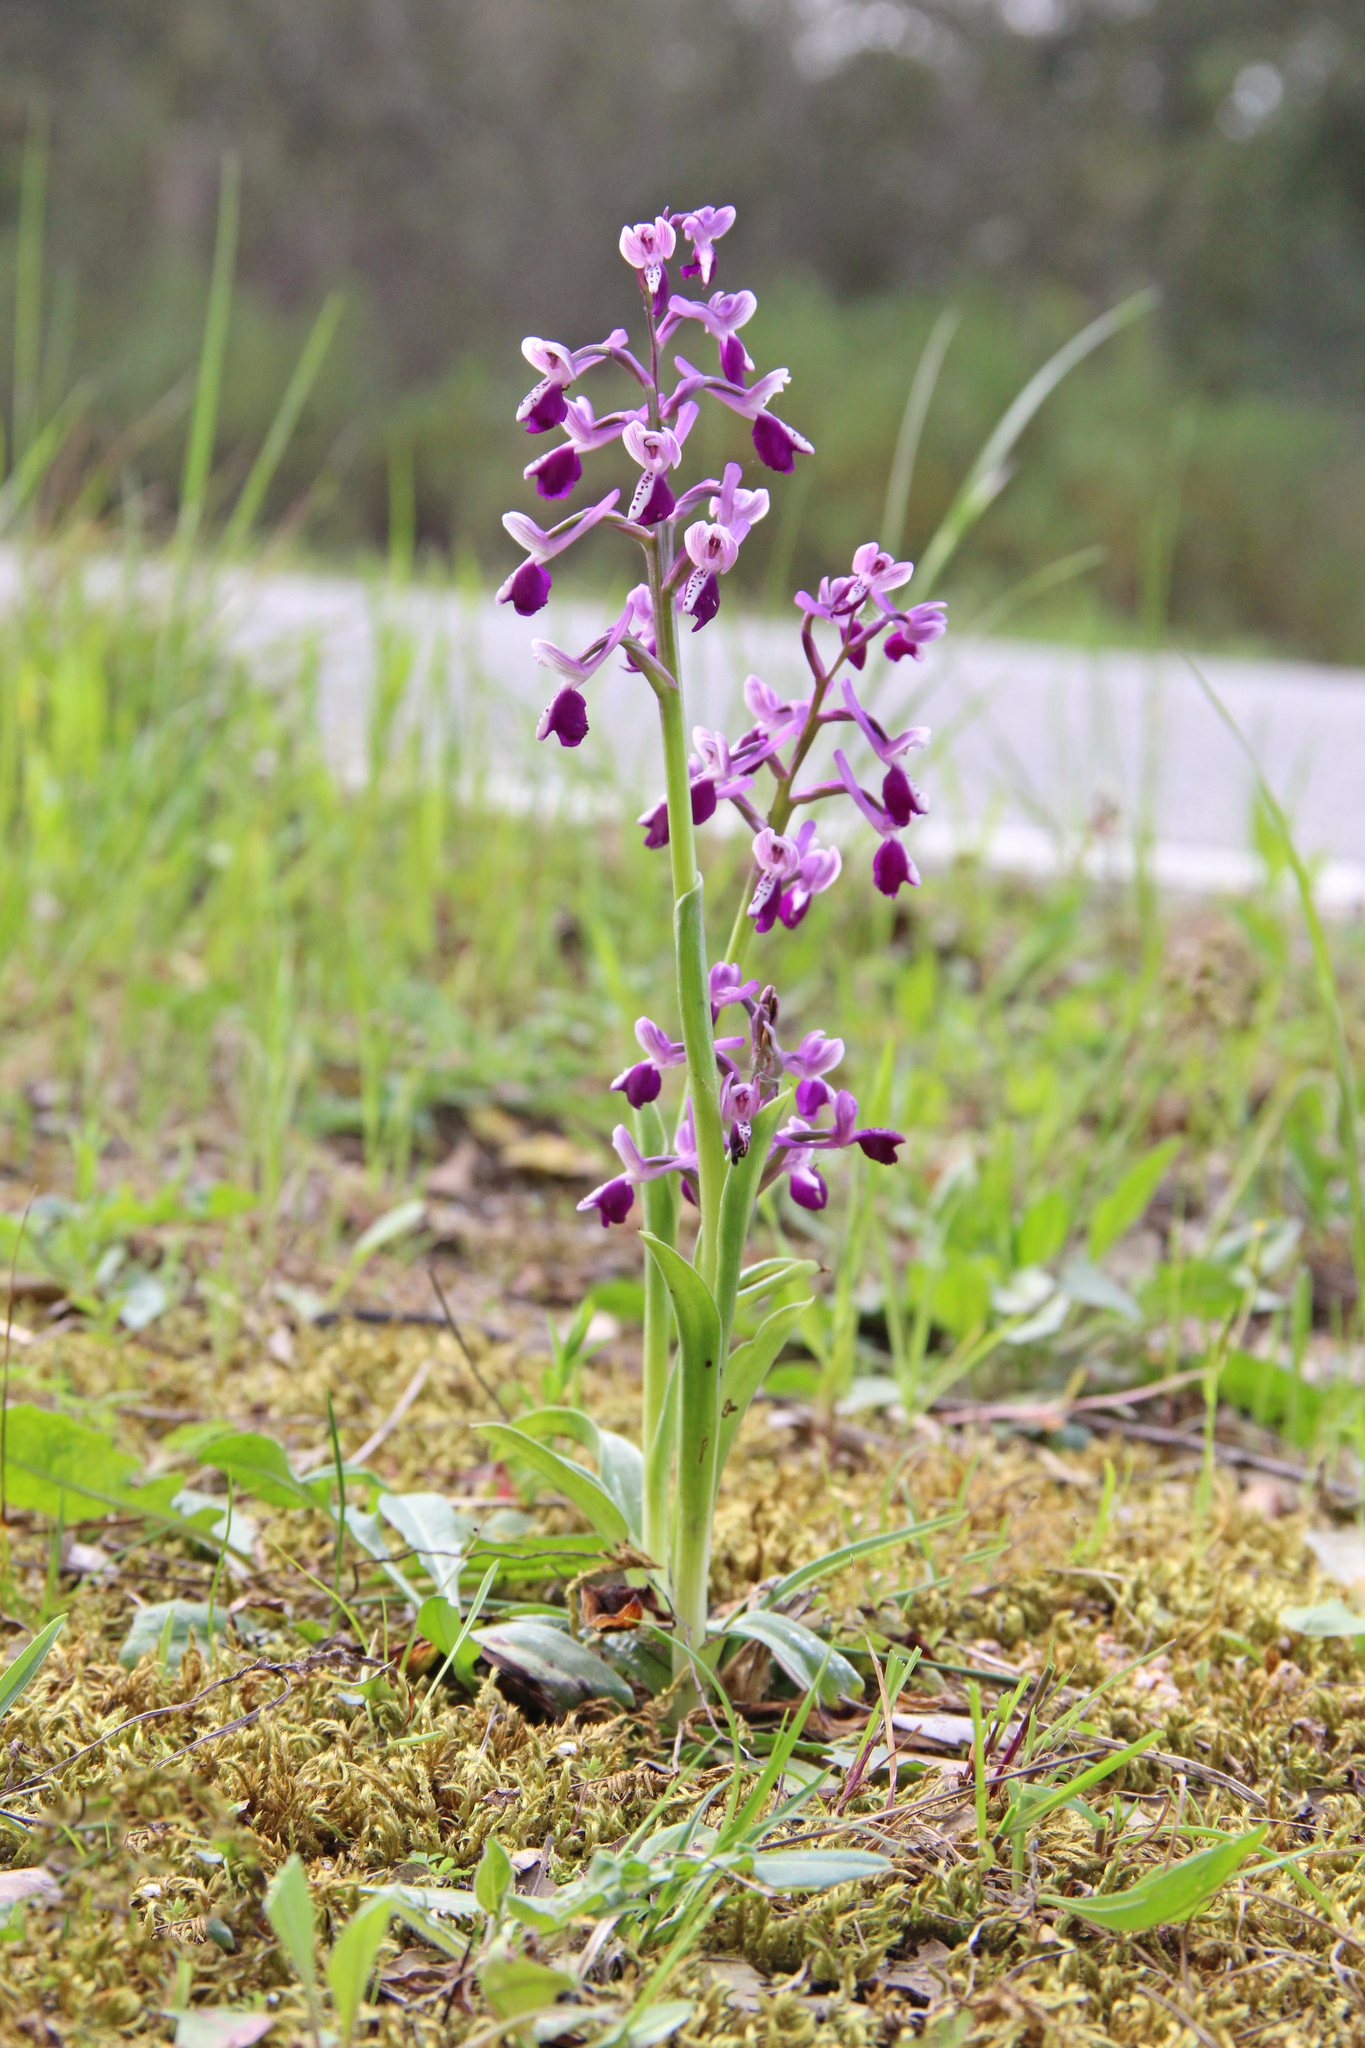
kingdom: Plantae
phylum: Tracheophyta
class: Liliopsida
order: Asparagales
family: Orchidaceae
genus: Anacamptis
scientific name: Anacamptis morio
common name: Green-winged orchid
